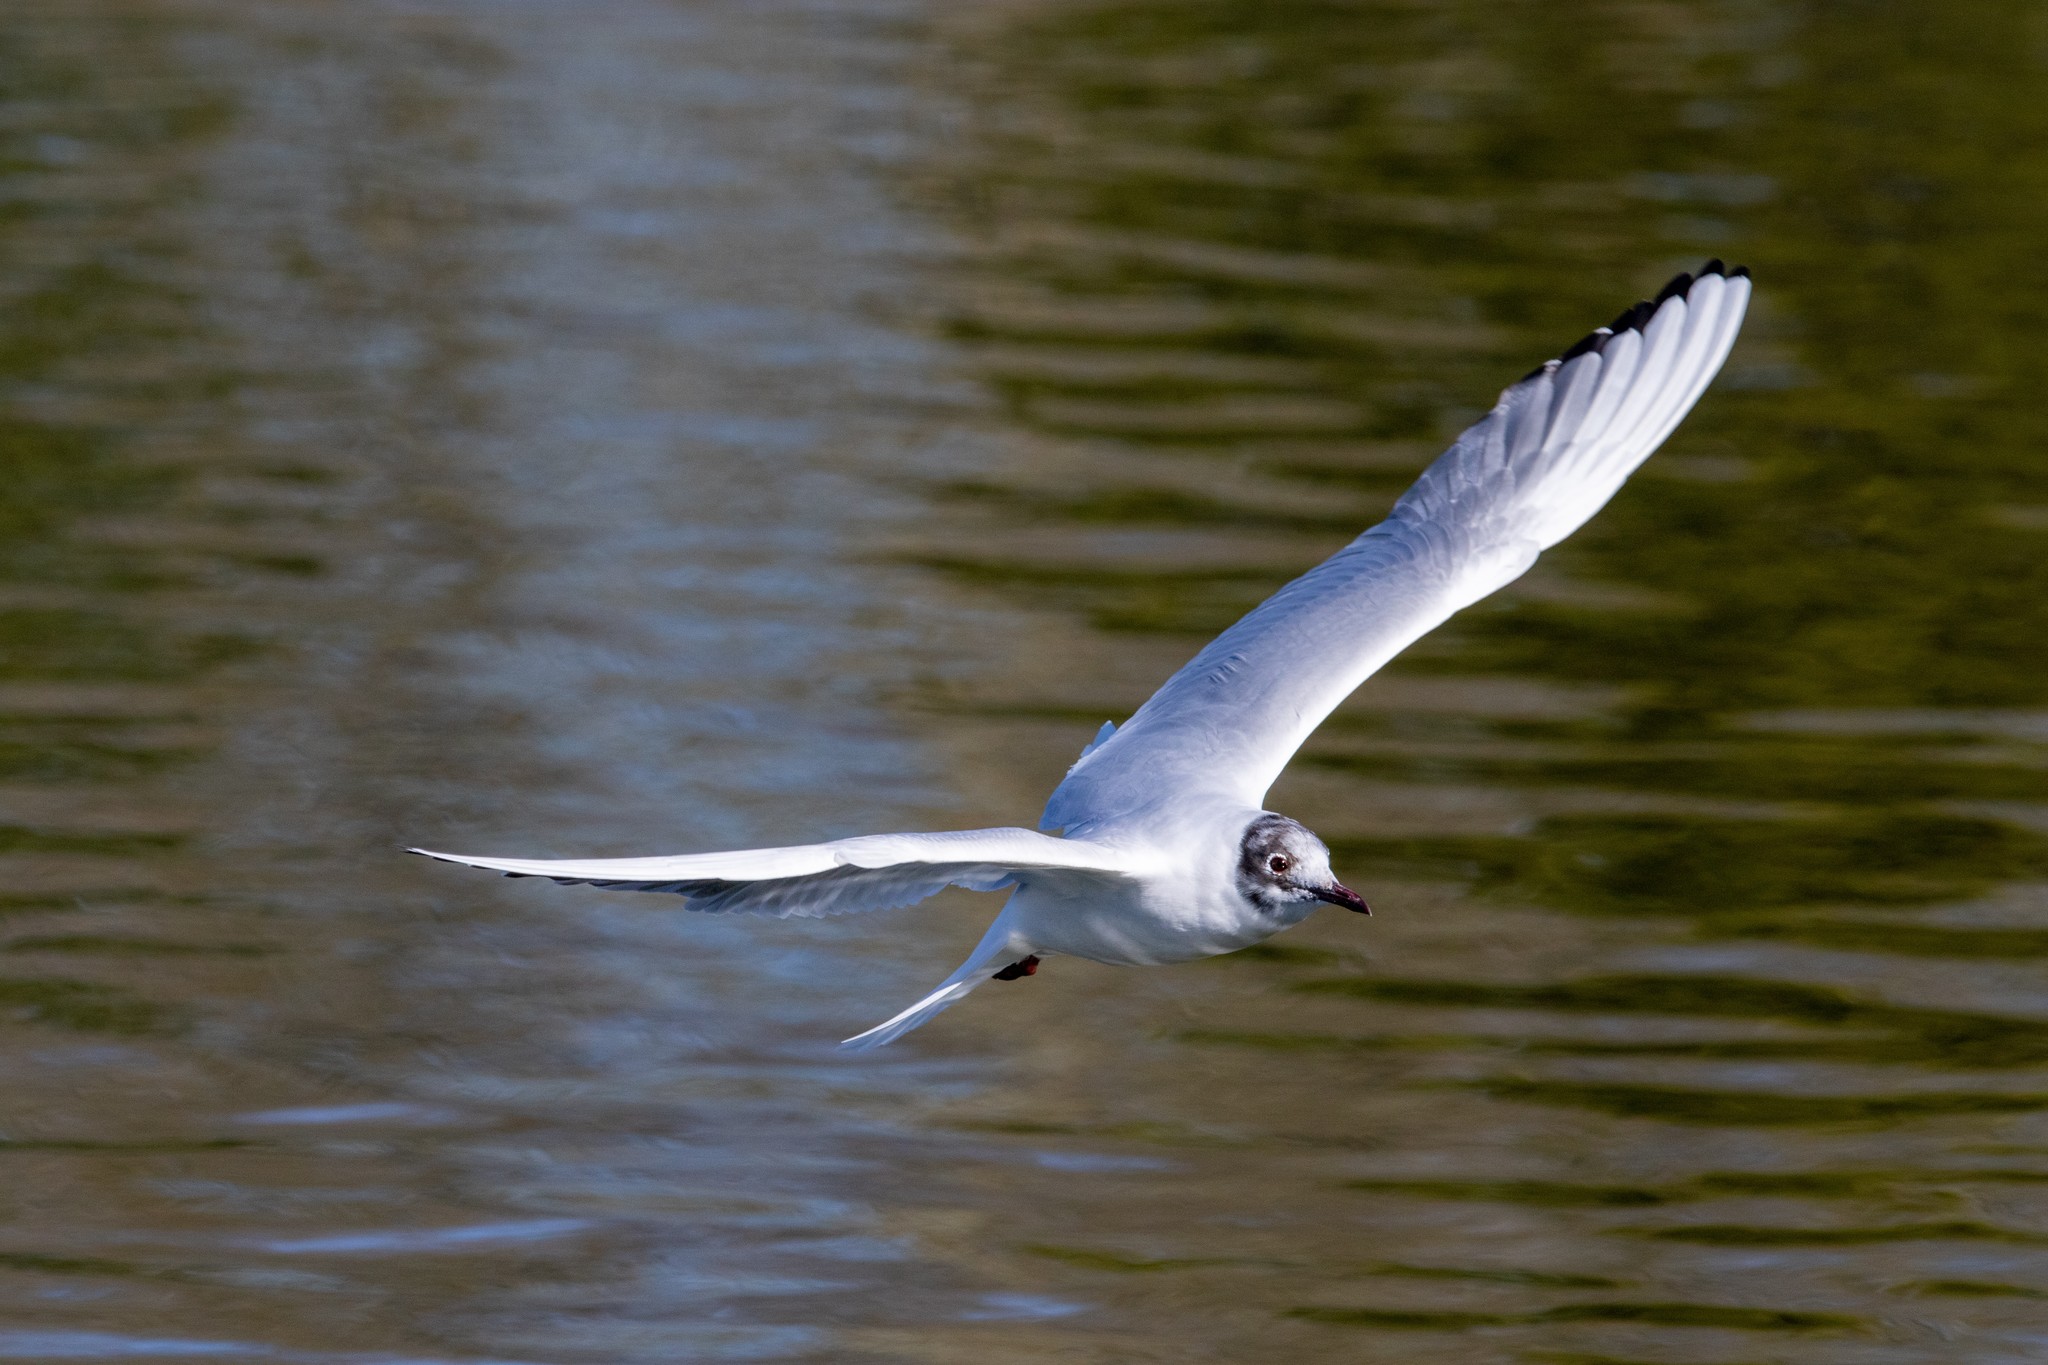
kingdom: Animalia
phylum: Chordata
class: Aves
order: Charadriiformes
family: Laridae
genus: Chroicocephalus
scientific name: Chroicocephalus ridibundus
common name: Black-headed gull
